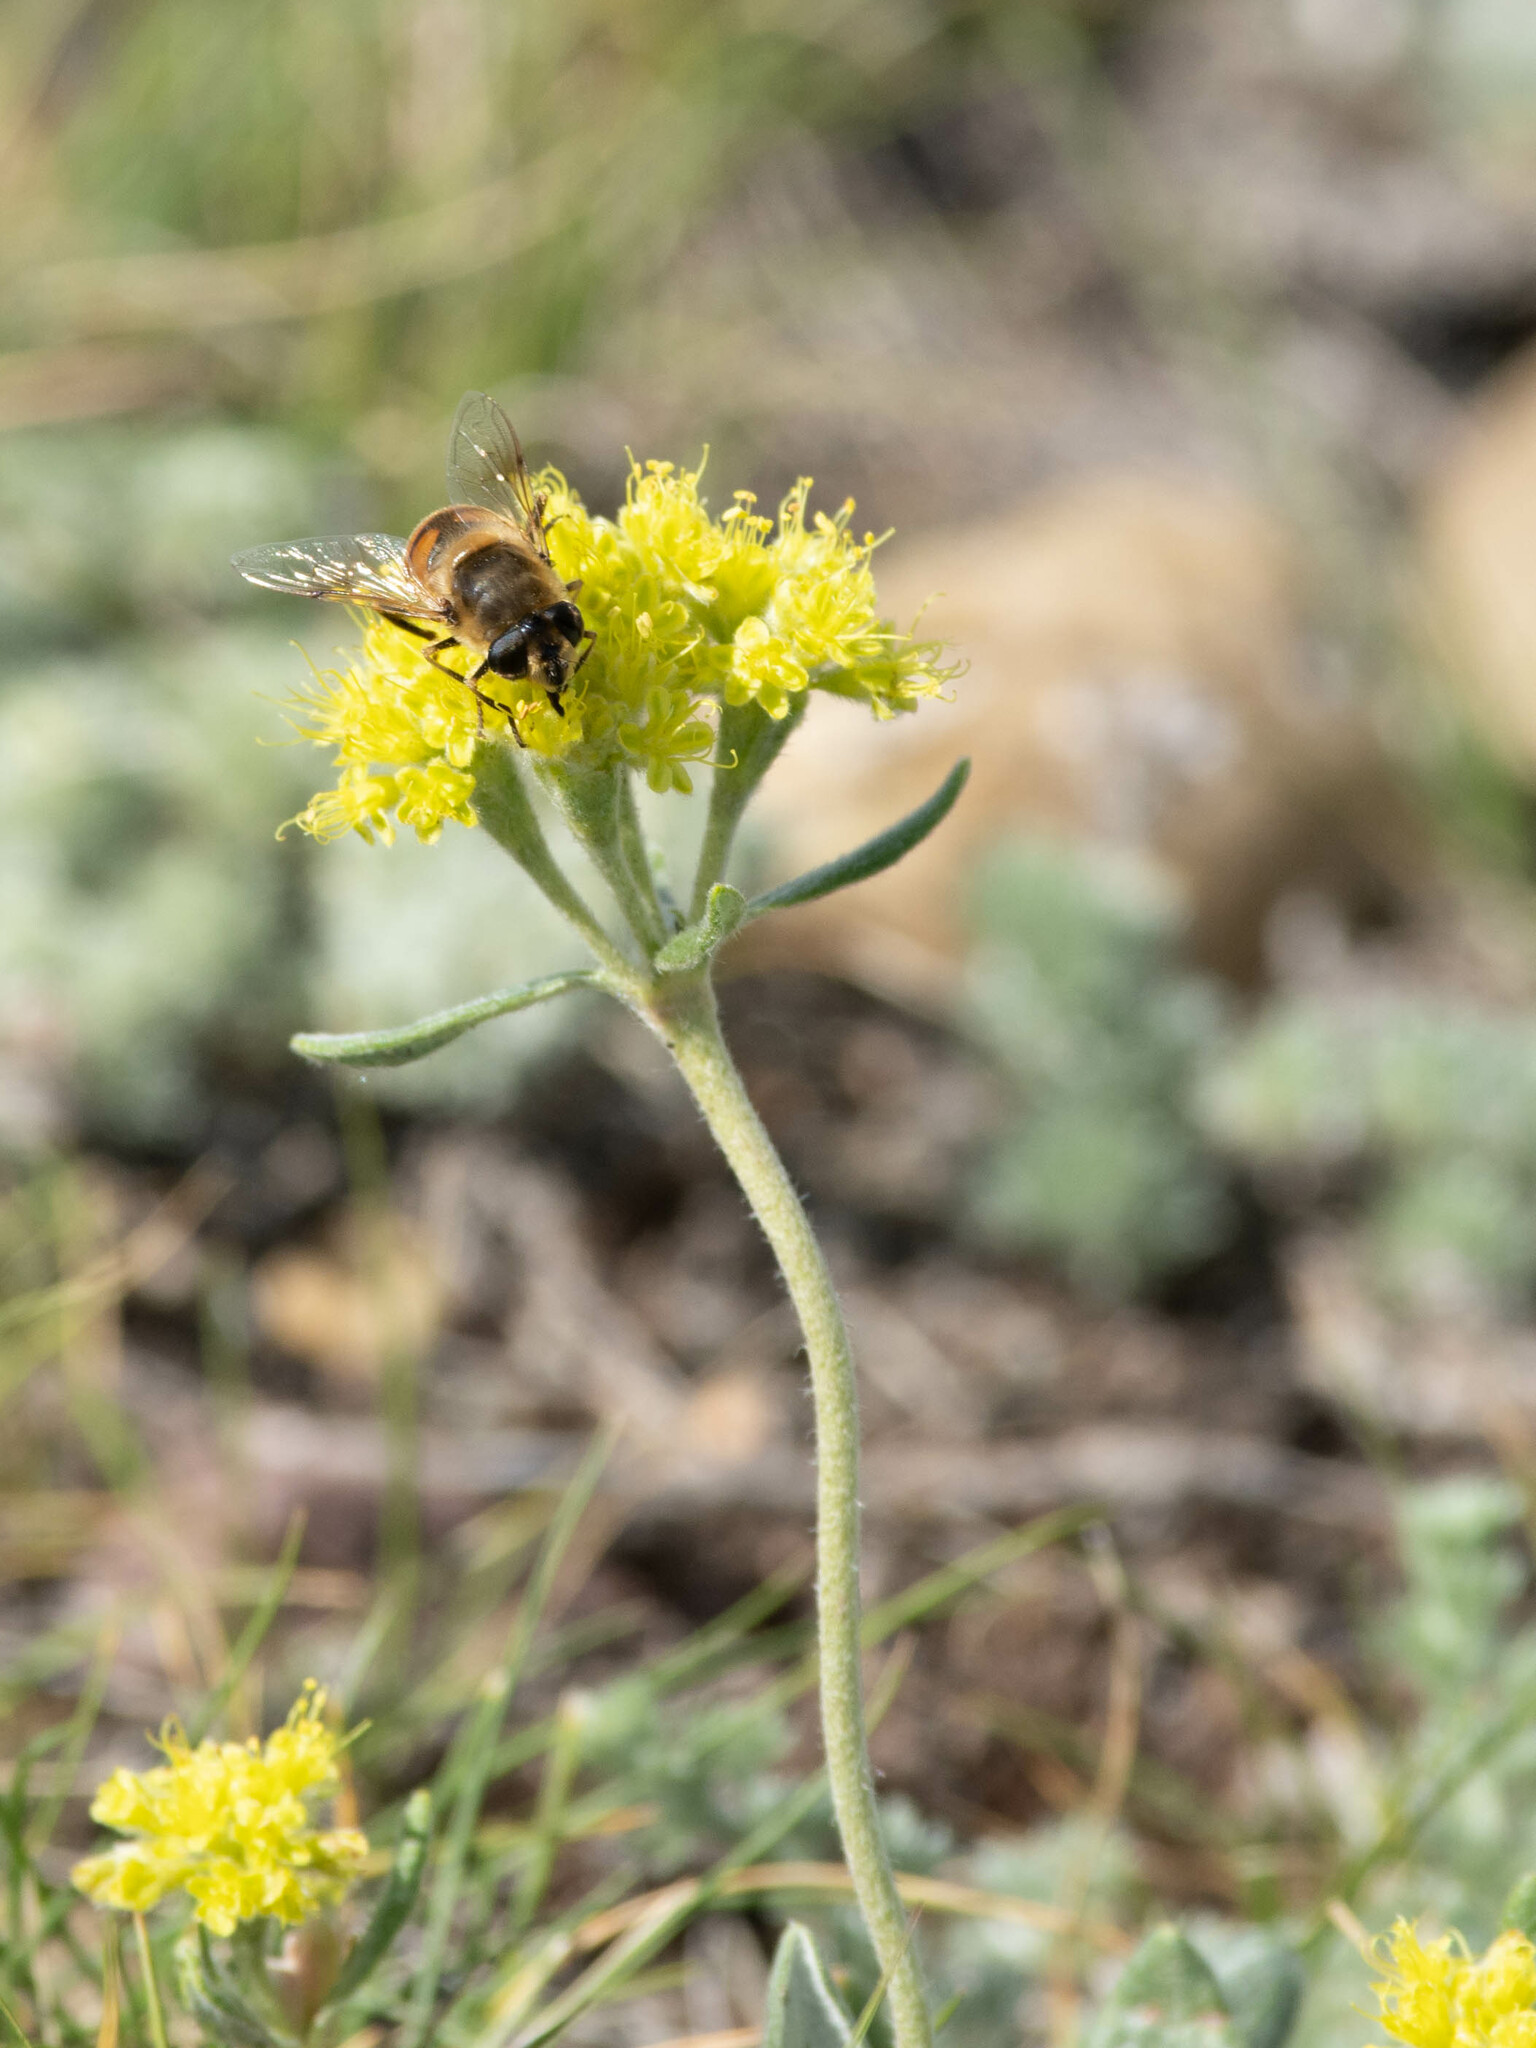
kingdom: Plantae
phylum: Tracheophyta
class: Magnoliopsida
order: Caryophyllales
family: Polygonaceae
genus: Eriogonum
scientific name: Eriogonum flavum
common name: Alpine golden wild buckwheat
